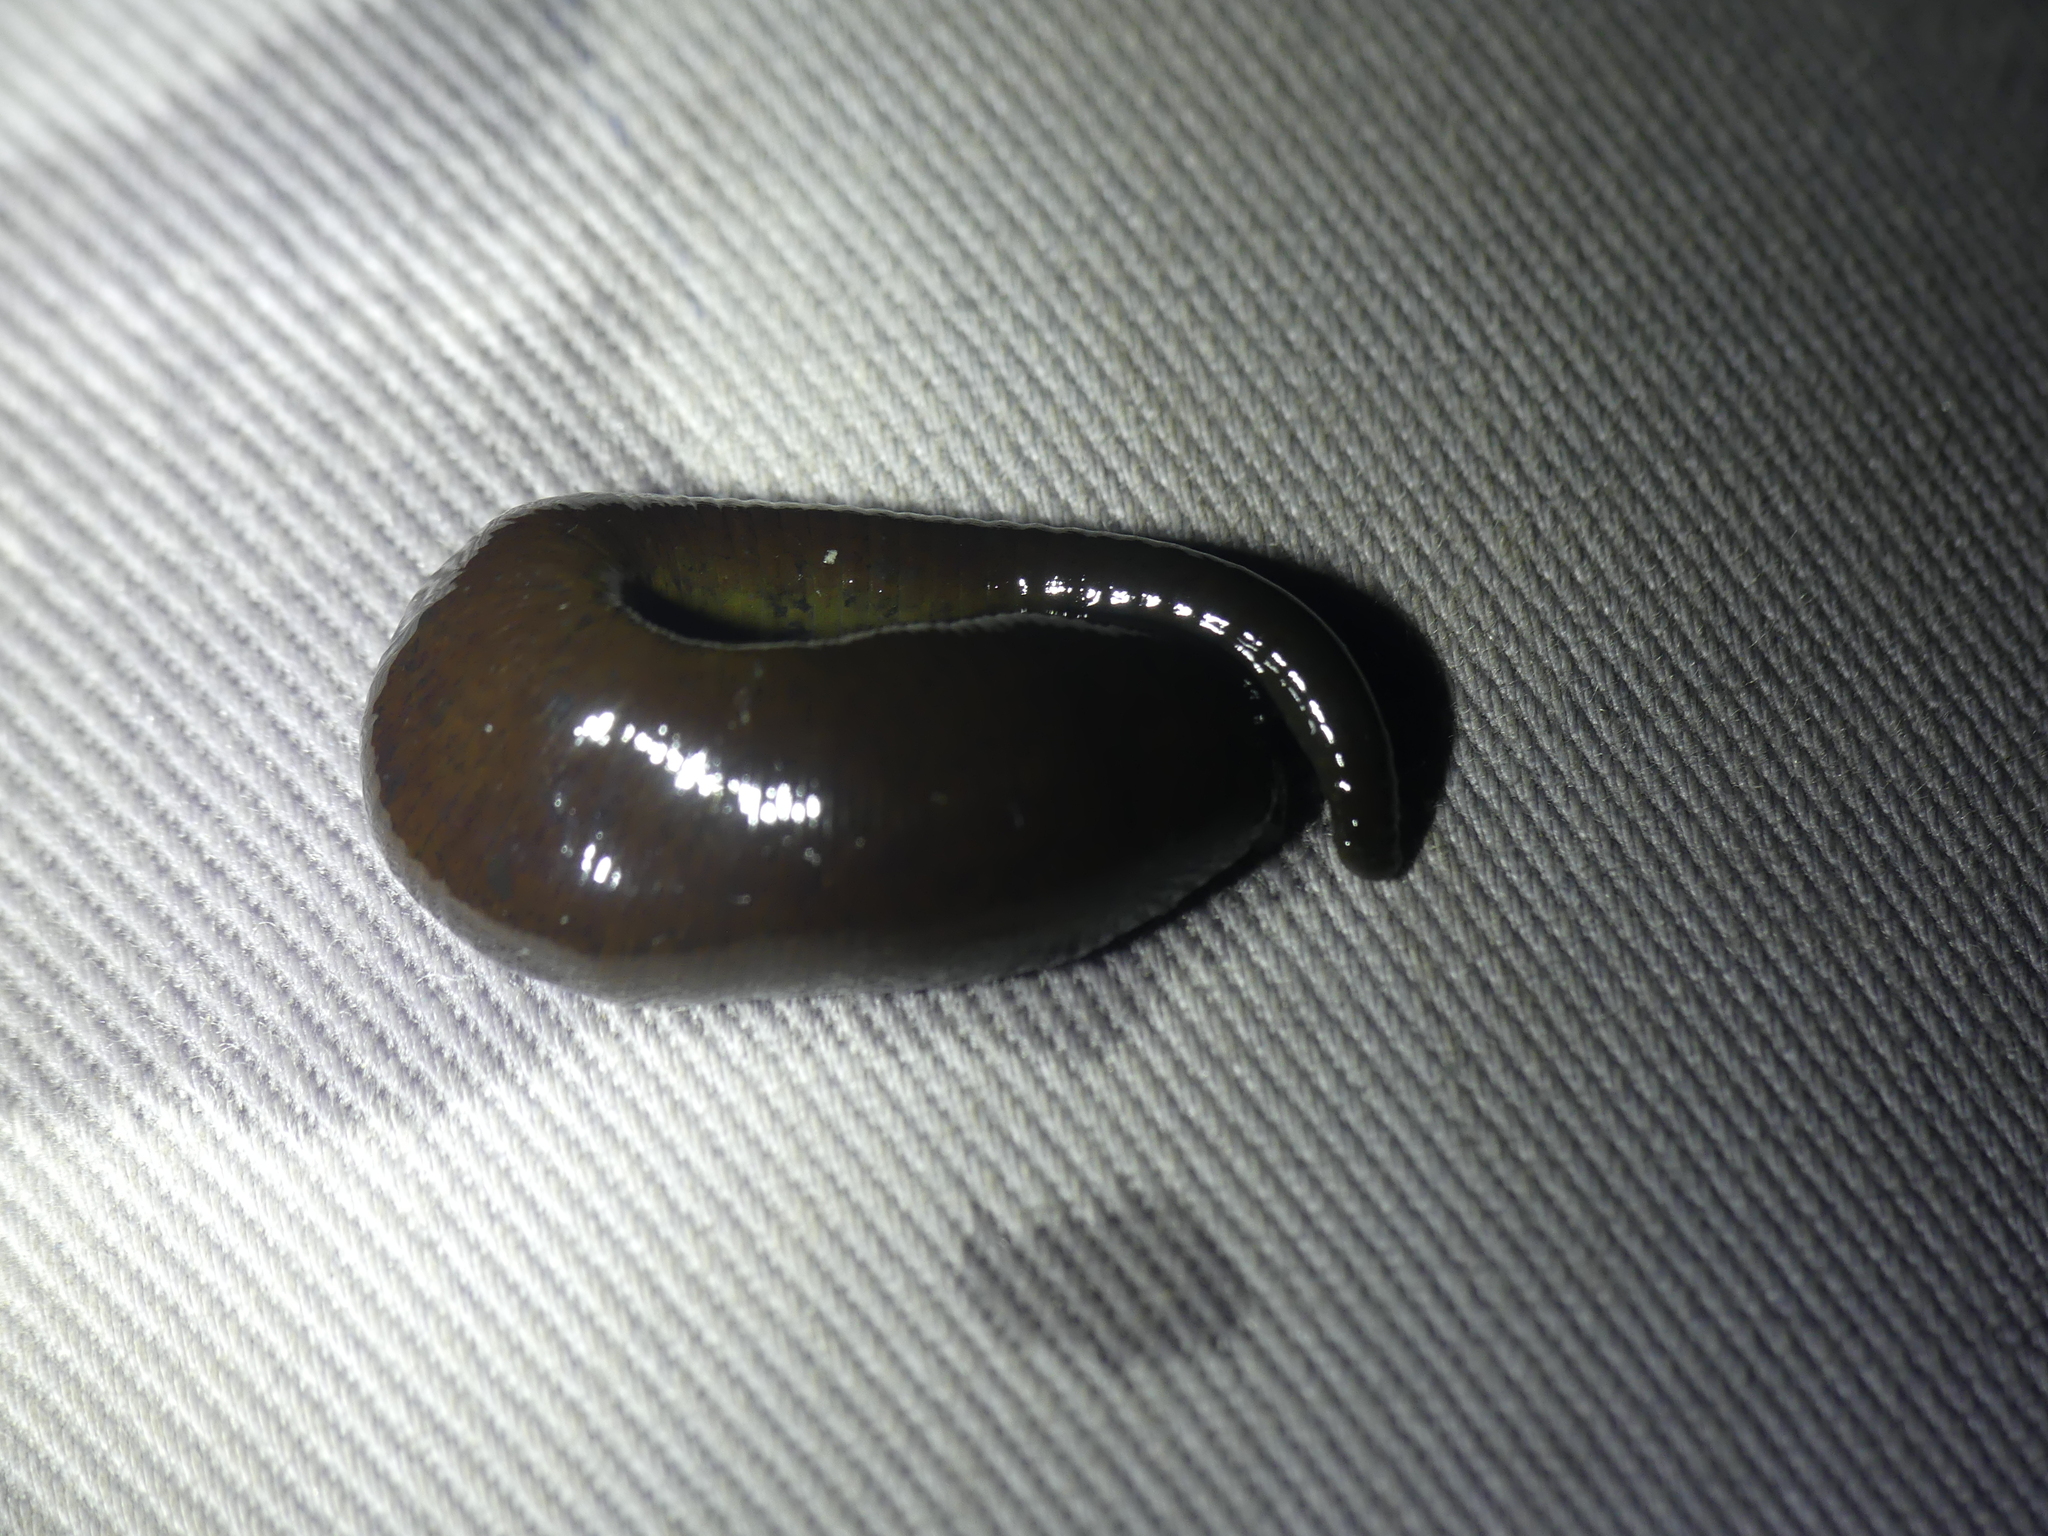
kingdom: Animalia
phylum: Annelida
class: Clitellata
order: Arhynchobdellida
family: Haemopidae
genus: Haemopis
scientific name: Haemopis sanguisuga
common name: Horse leech
